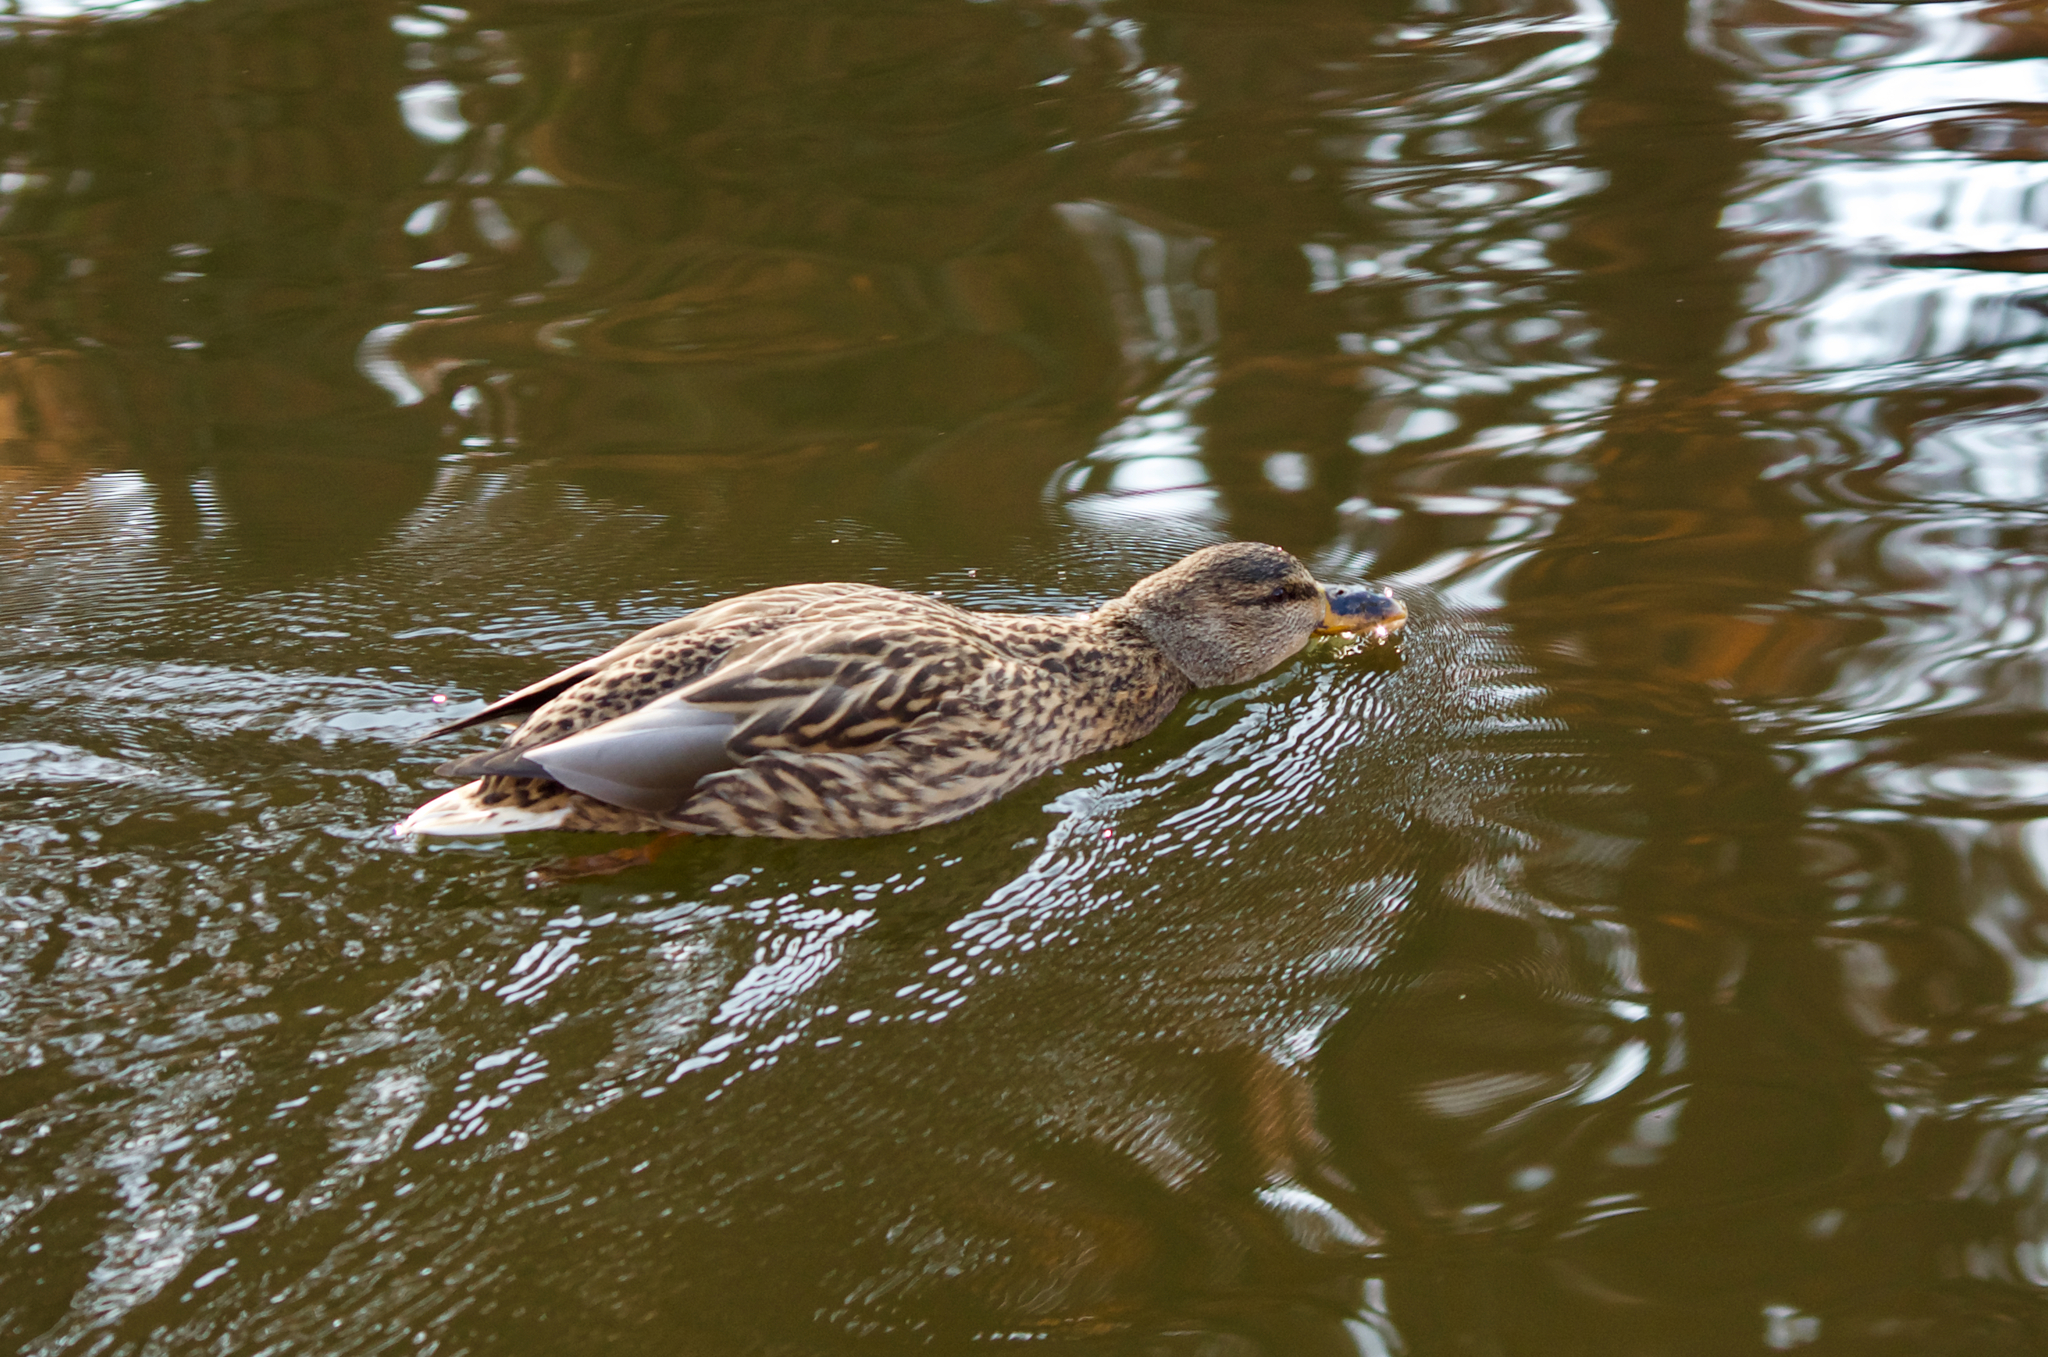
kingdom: Animalia
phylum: Chordata
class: Aves
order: Anseriformes
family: Anatidae
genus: Anas
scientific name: Anas platyrhynchos
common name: Mallard
